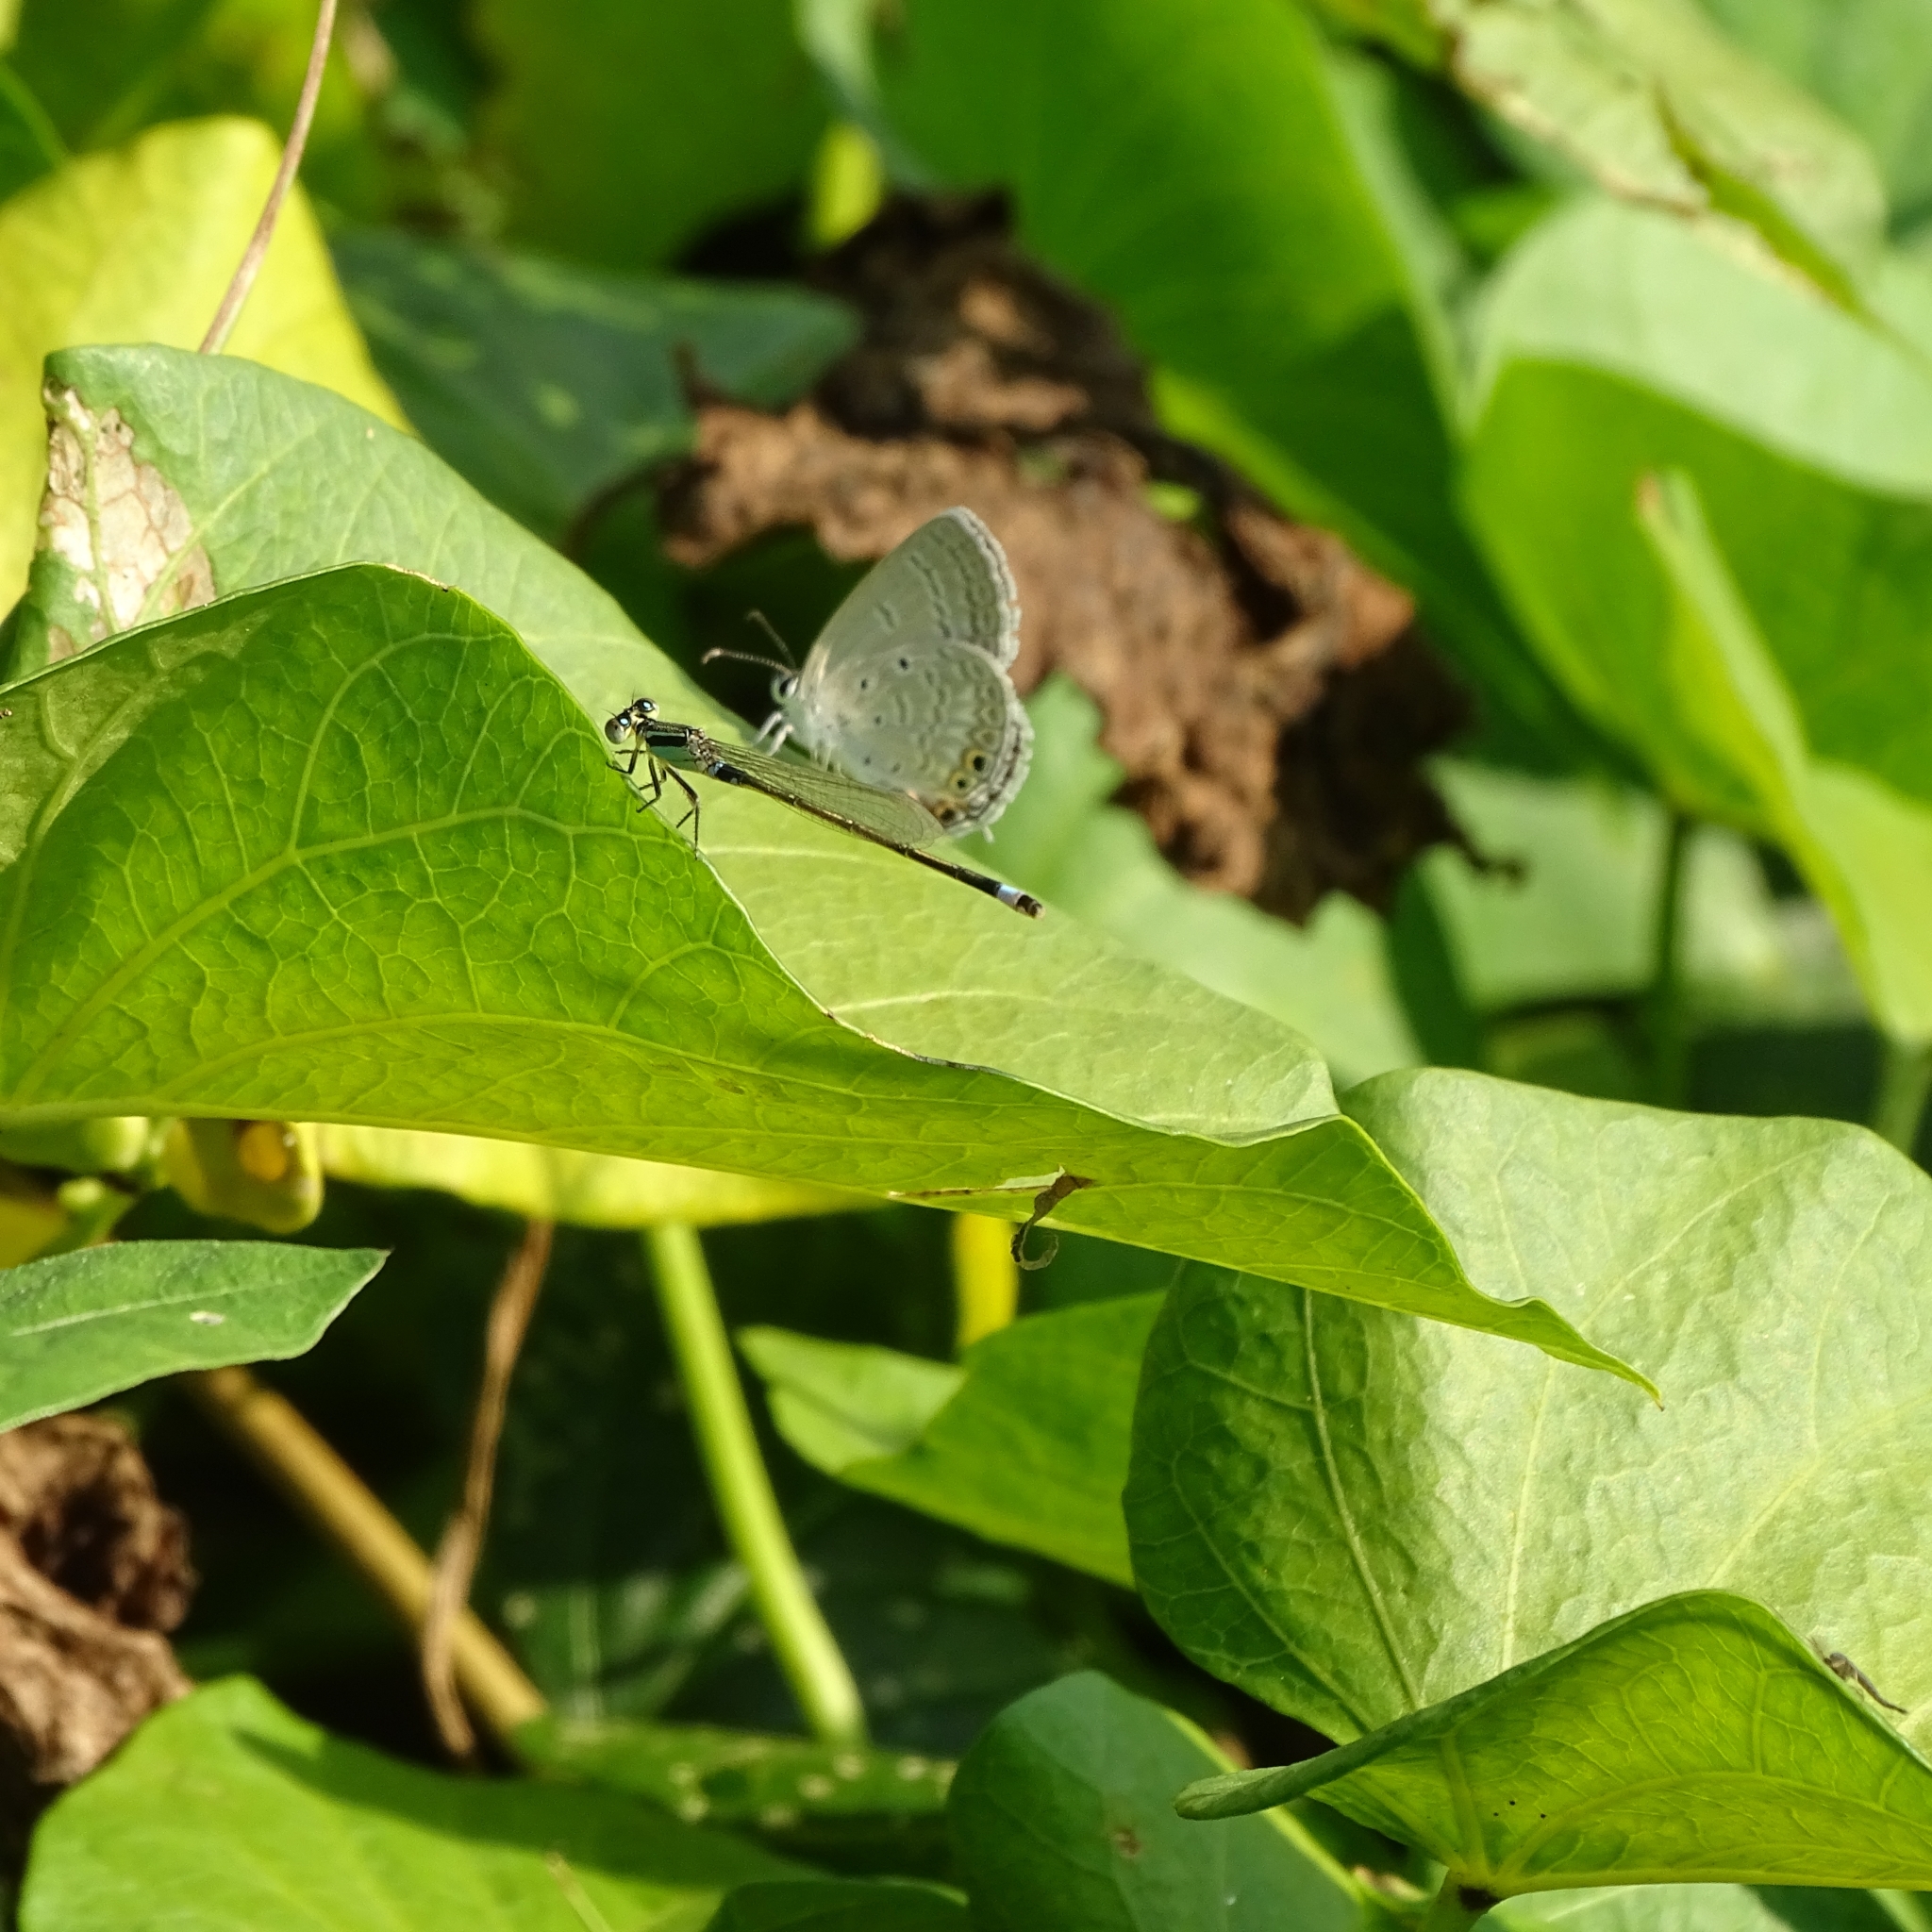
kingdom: Animalia
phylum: Arthropoda
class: Insecta
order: Lepidoptera
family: Lycaenidae
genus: Euchrysops
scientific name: Euchrysops cnejus
